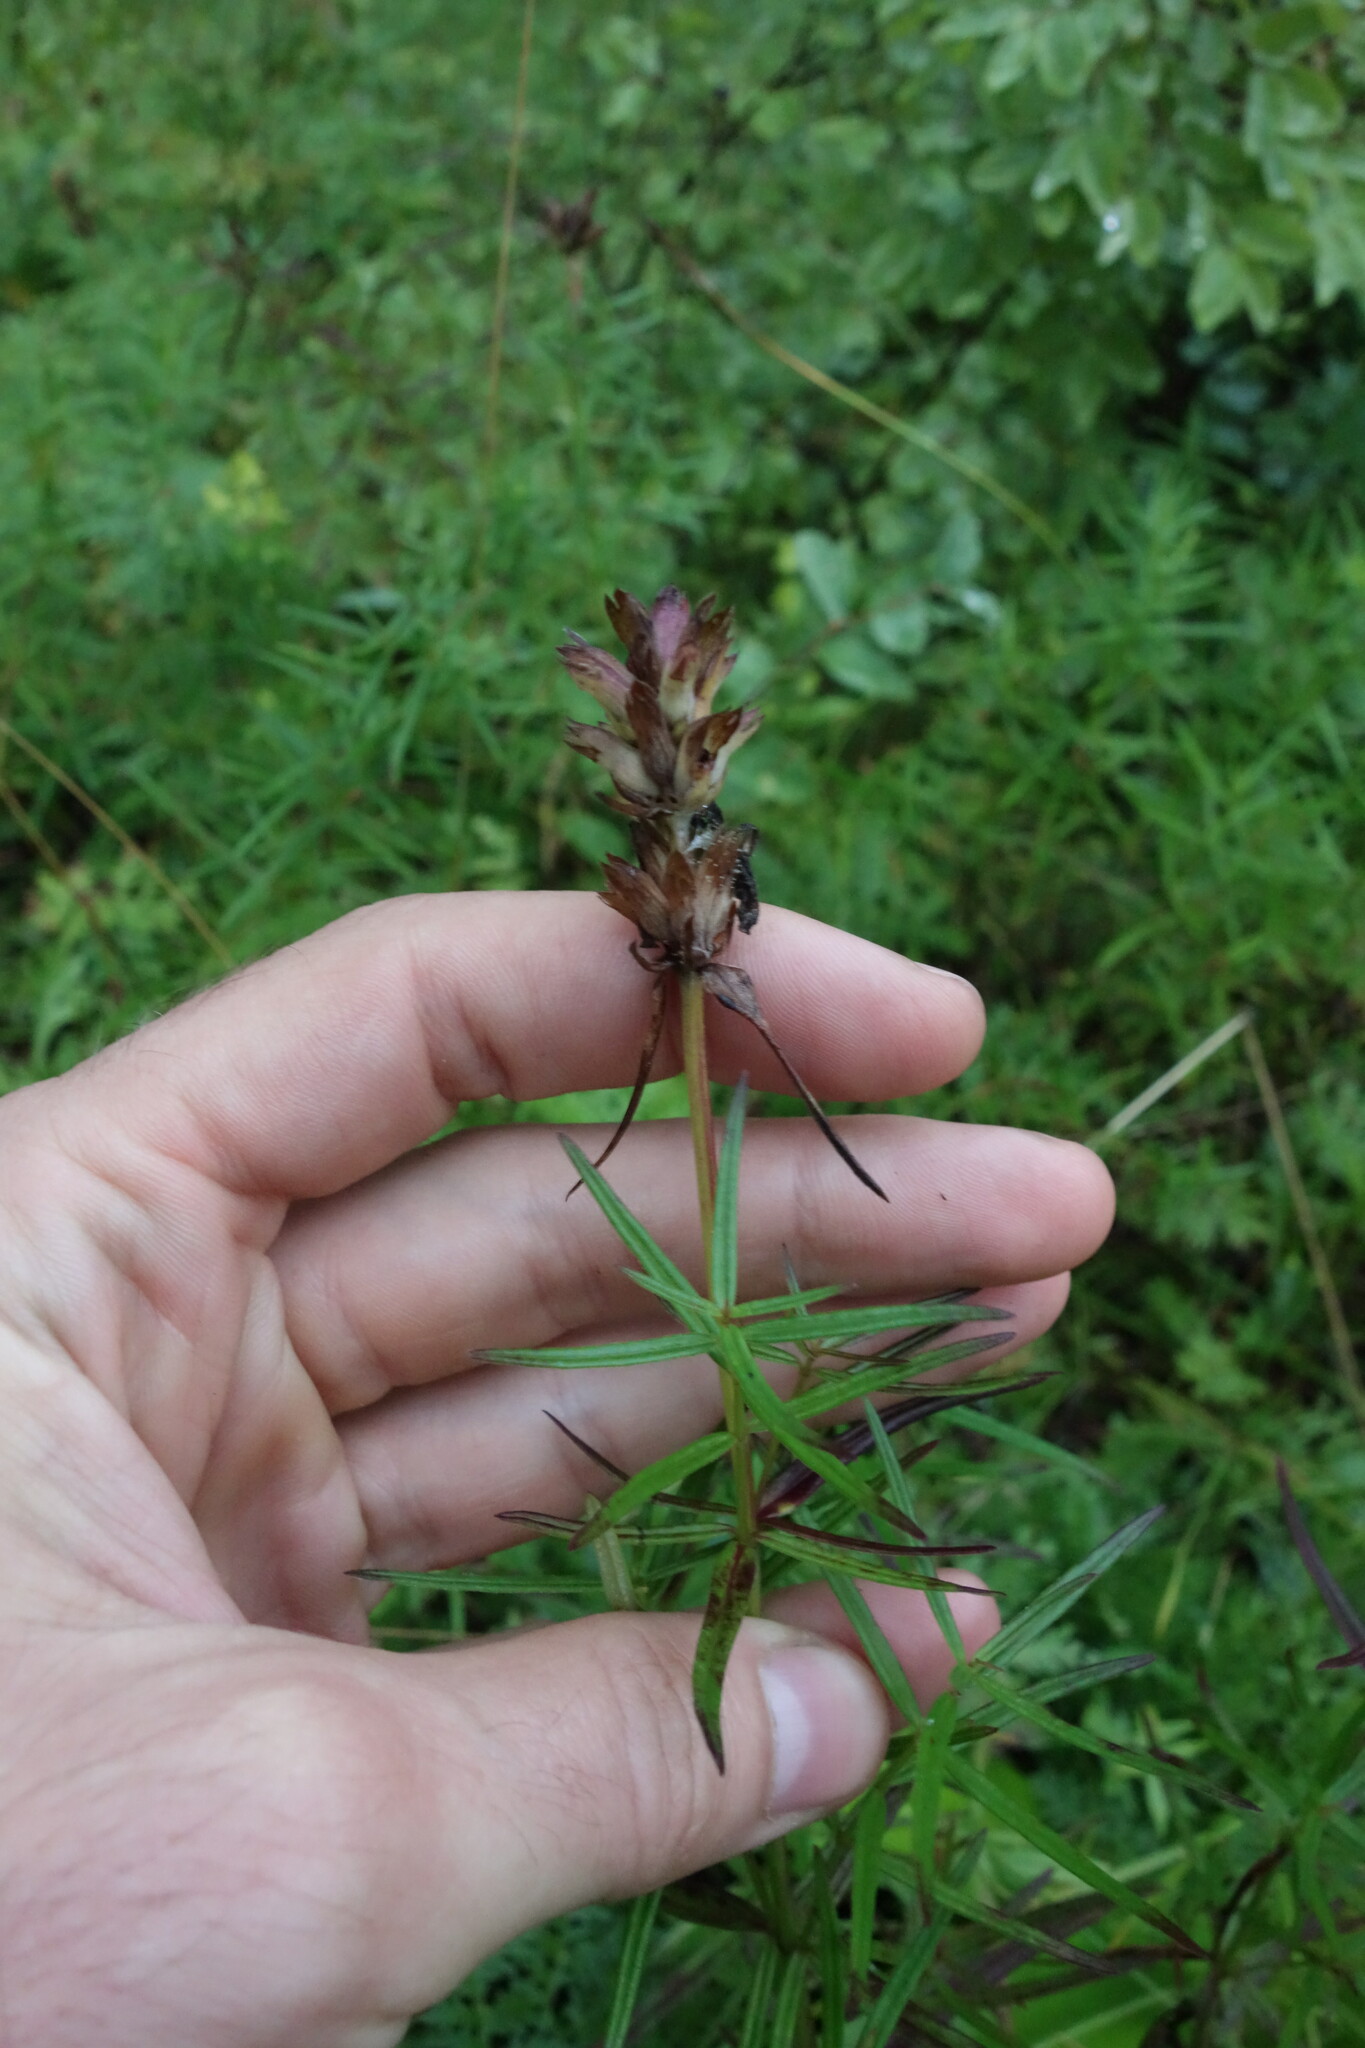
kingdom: Plantae
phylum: Tracheophyta
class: Magnoliopsida
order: Lamiales
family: Lamiaceae
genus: Dracocephalum
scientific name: Dracocephalum ruyschiana
